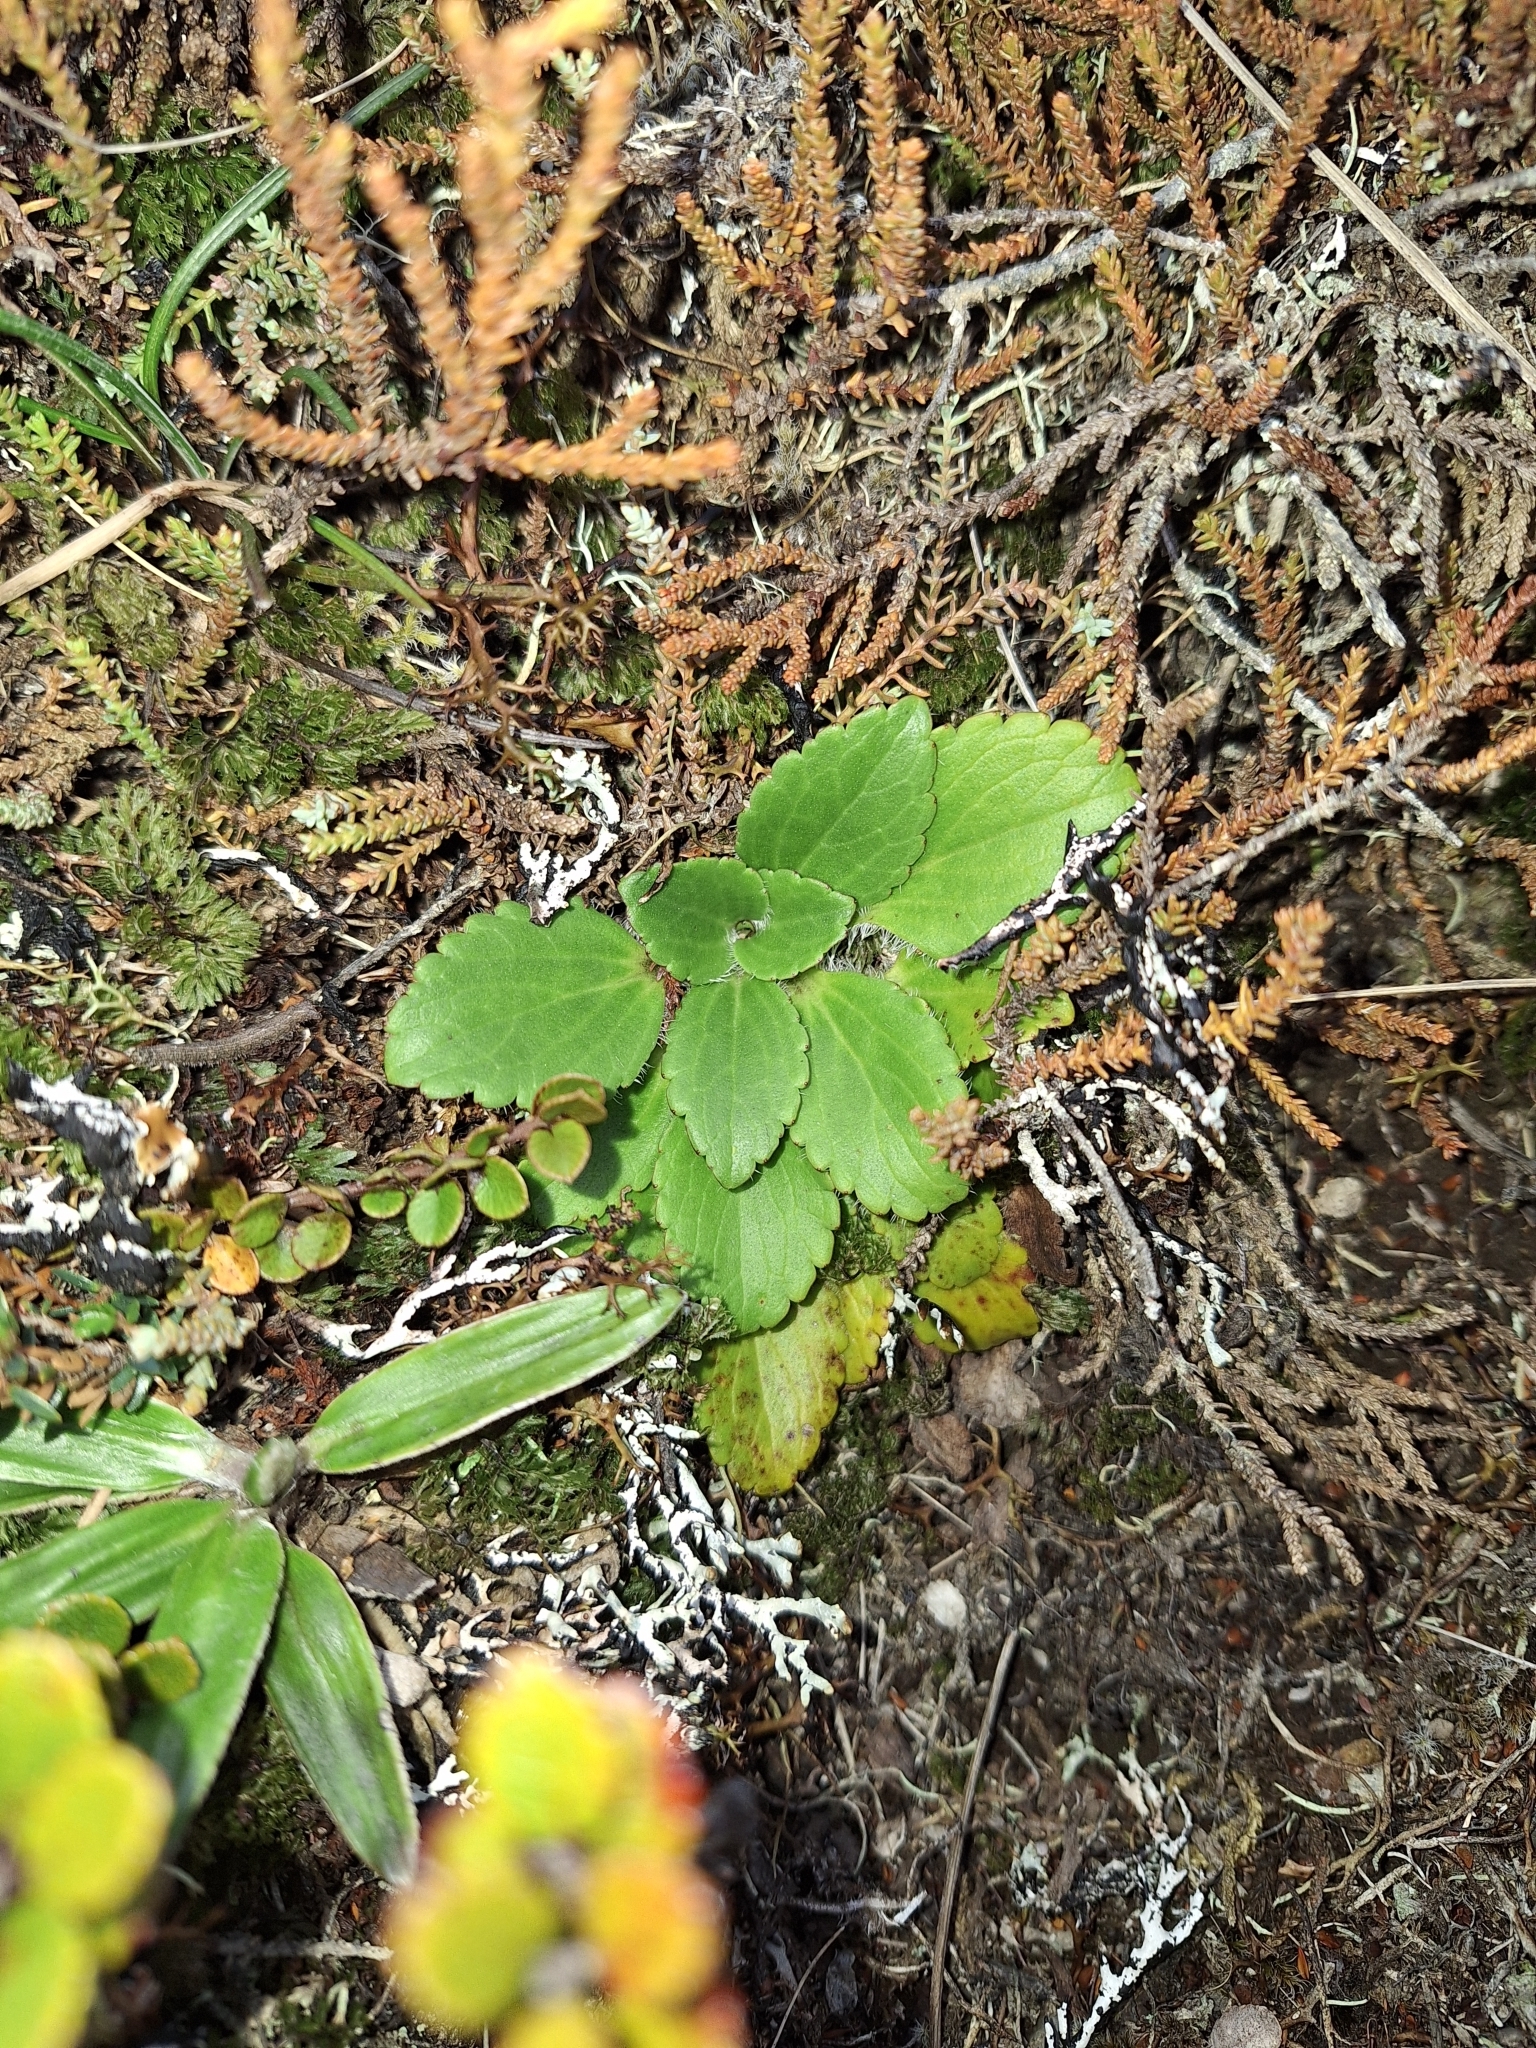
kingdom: Plantae
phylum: Tracheophyta
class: Magnoliopsida
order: Lamiales
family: Plantaginaceae
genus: Ourisia
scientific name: Ourisia macrophylla
